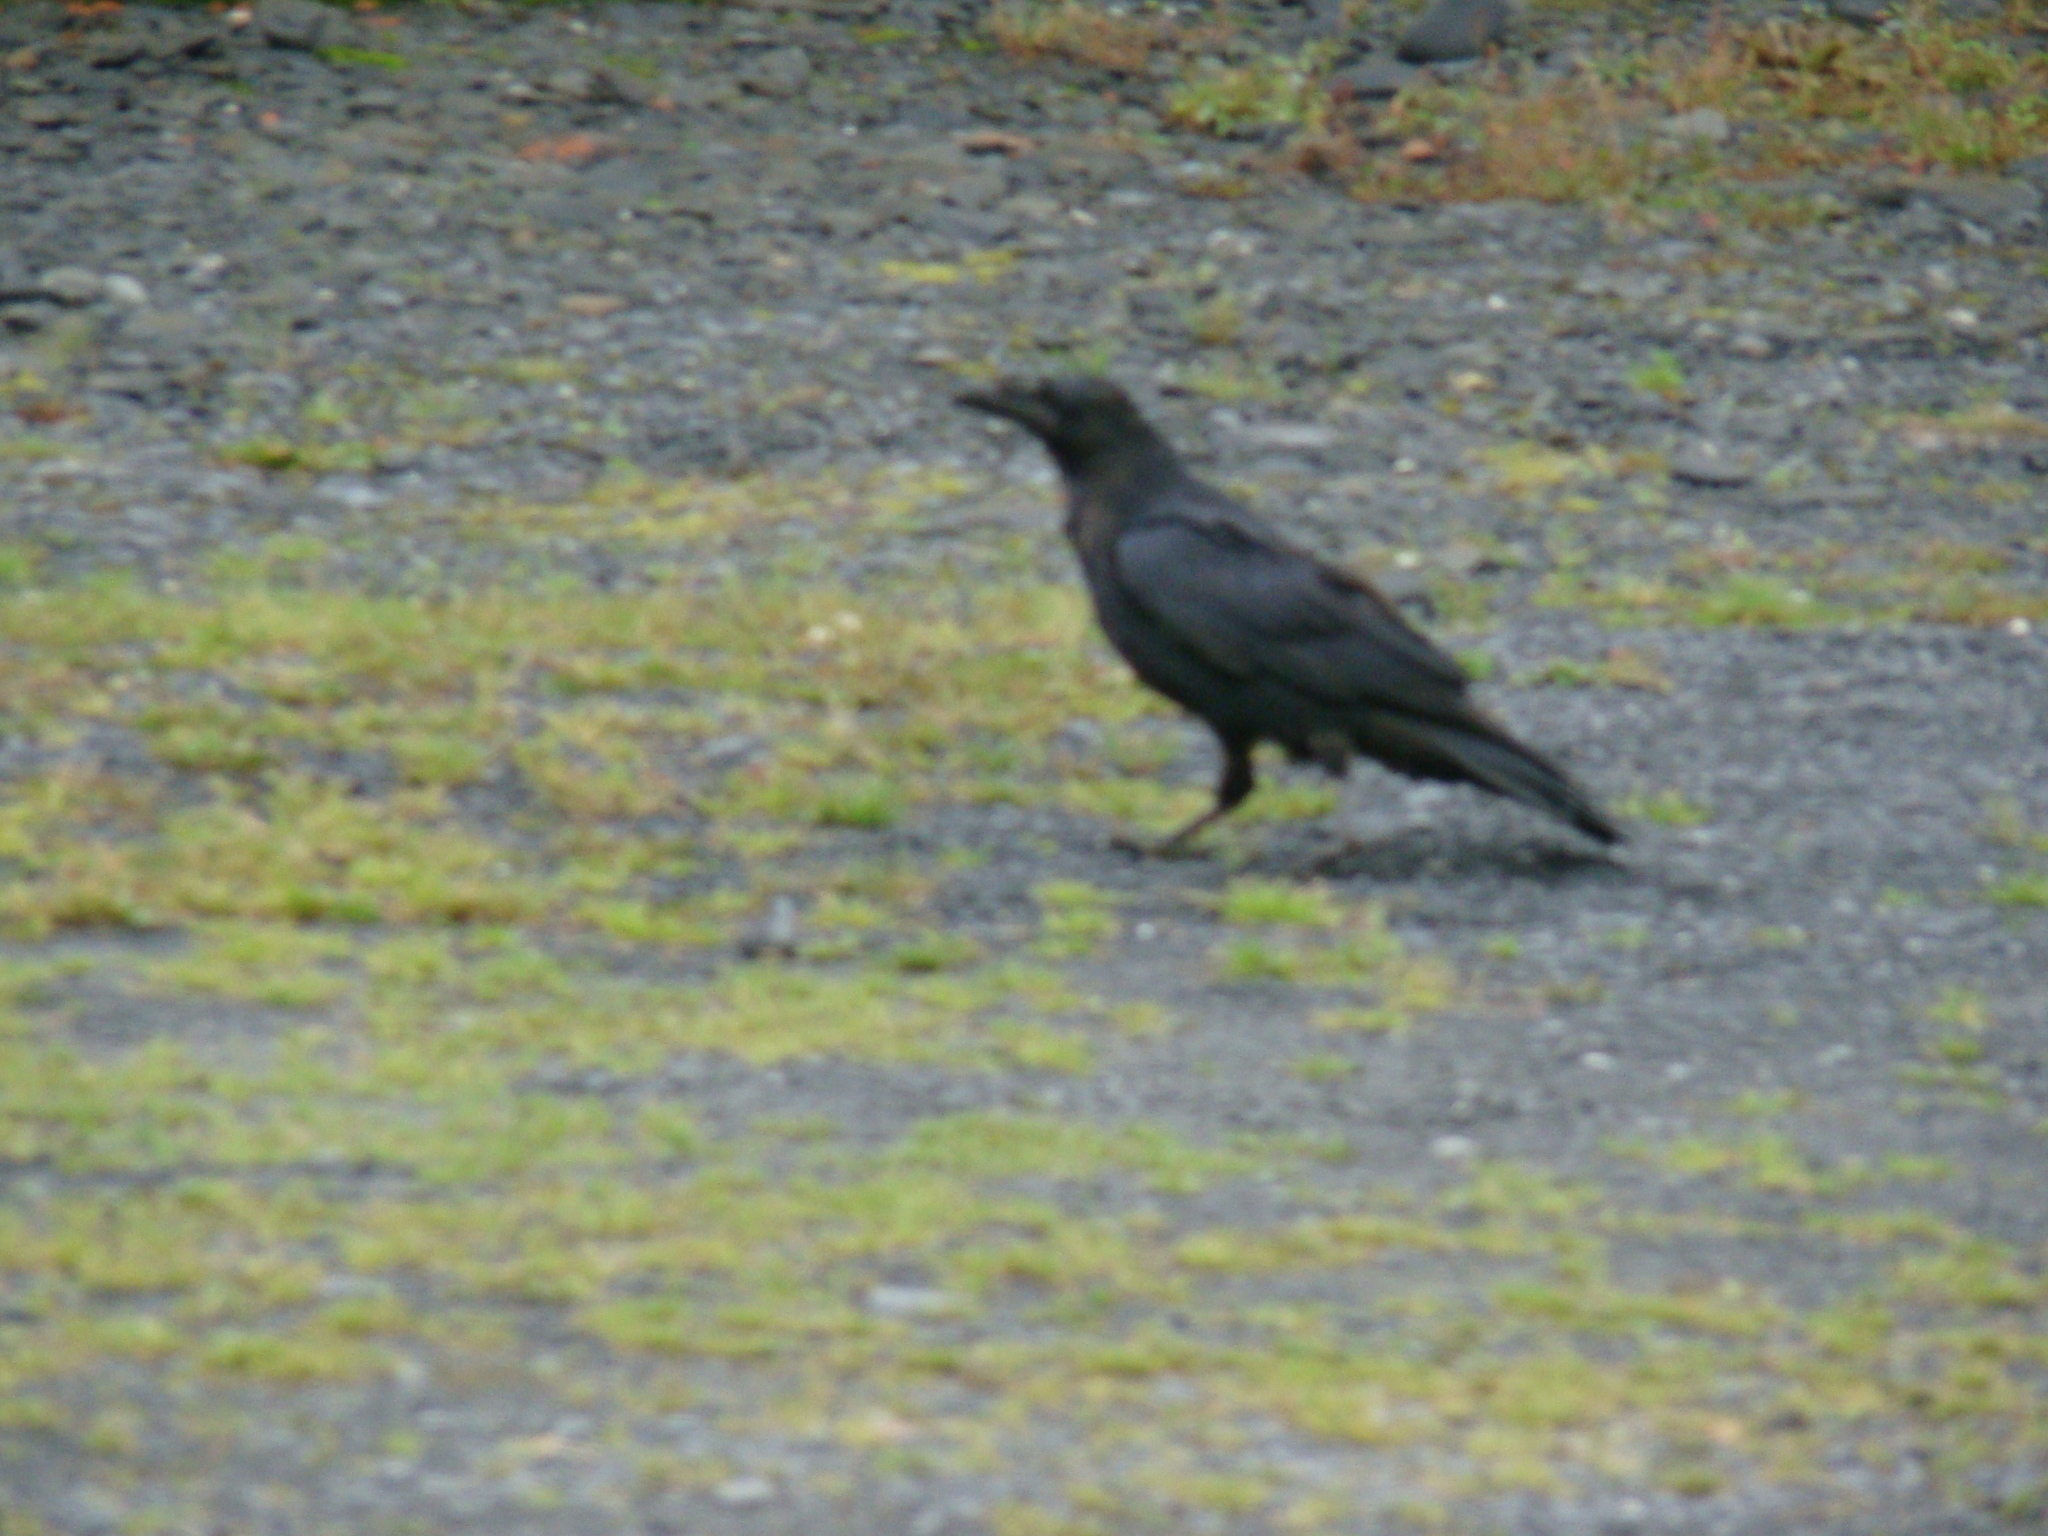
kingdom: Animalia
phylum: Chordata
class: Aves
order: Passeriformes
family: Corvidae
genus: Corvus
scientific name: Corvus corax
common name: Common raven
